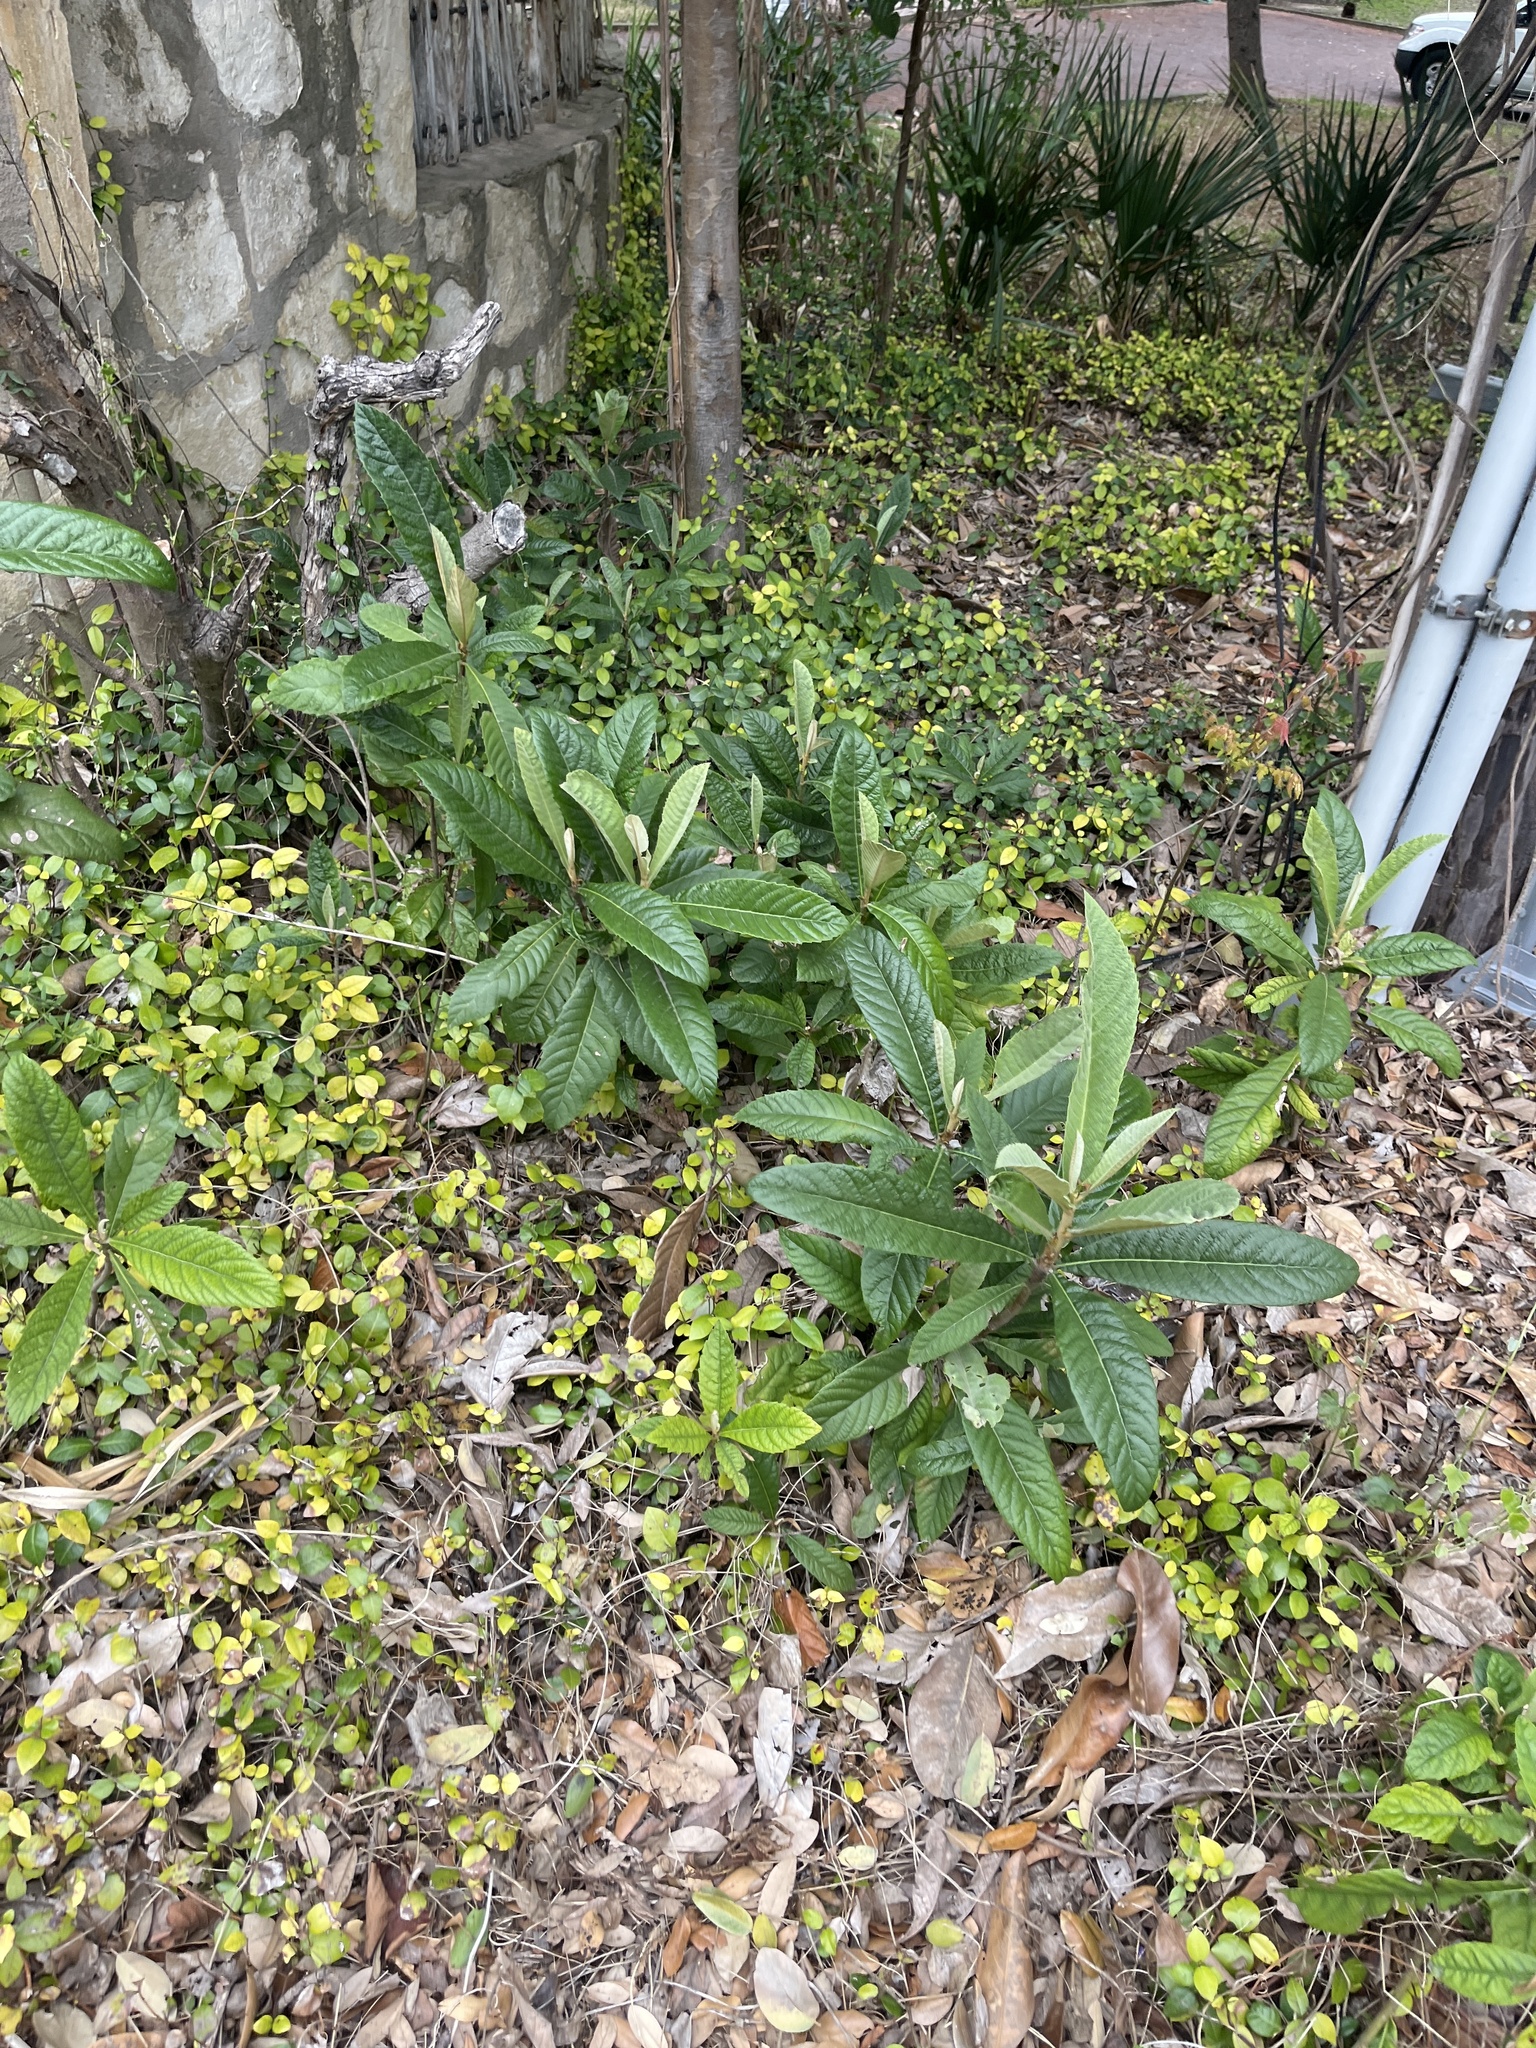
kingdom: Plantae
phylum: Tracheophyta
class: Magnoliopsida
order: Rosales
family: Rosaceae
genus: Rhaphiolepis
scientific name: Rhaphiolepis bibas
